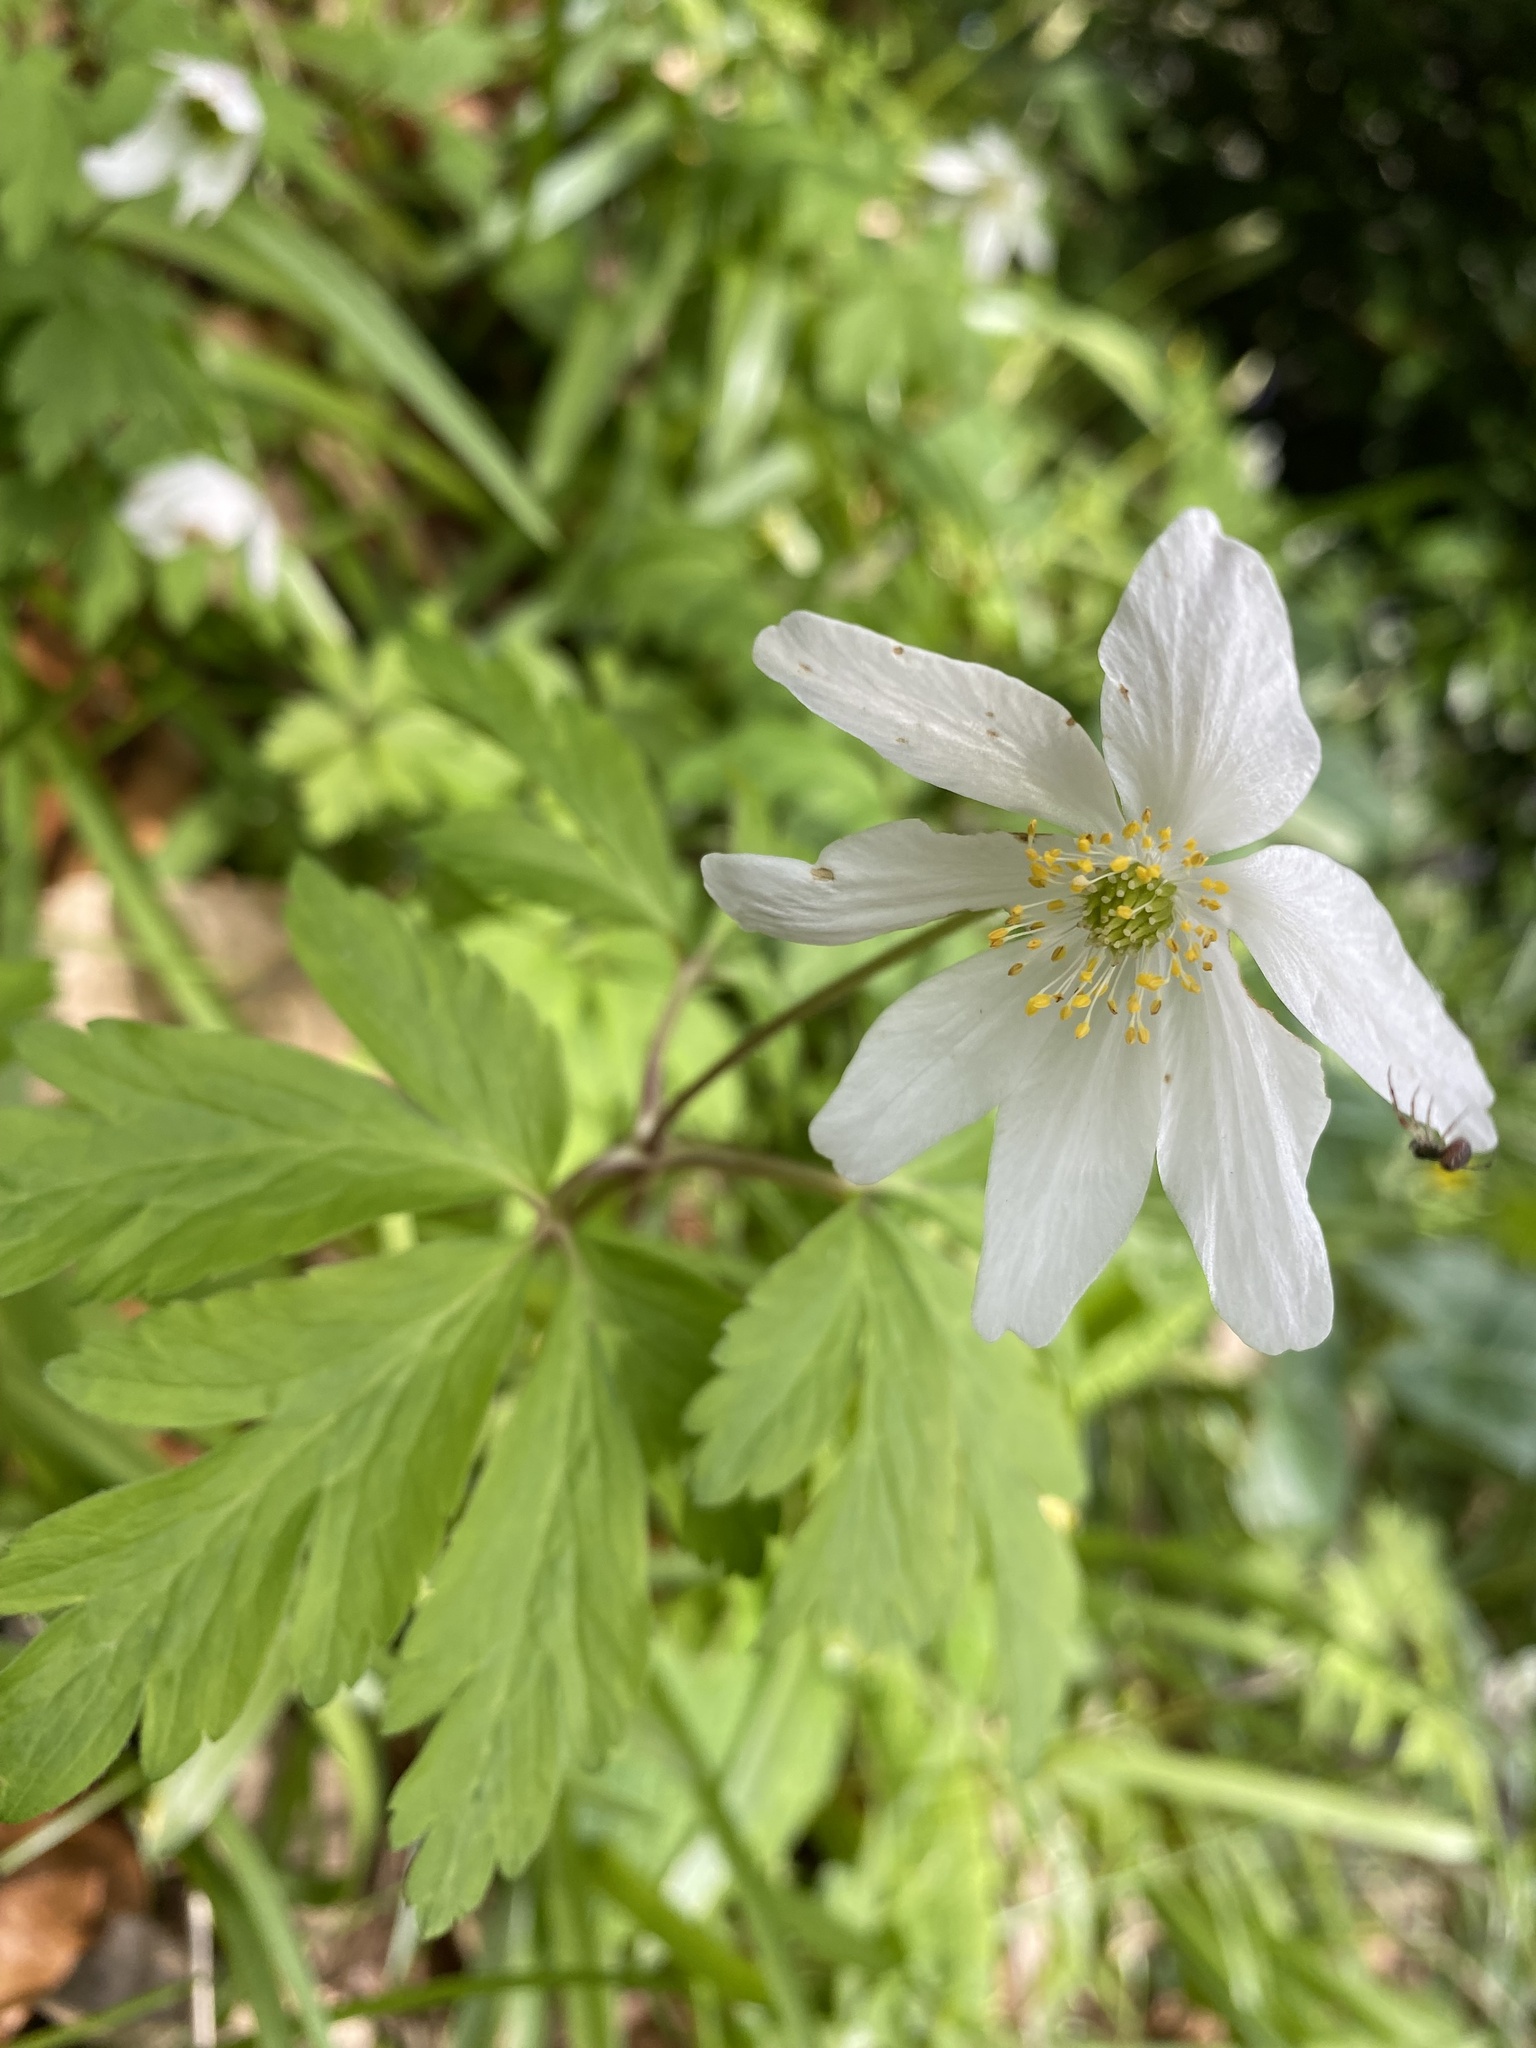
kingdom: Plantae
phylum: Tracheophyta
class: Magnoliopsida
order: Ranunculales
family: Ranunculaceae
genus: Anemone
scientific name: Anemone nemorosa
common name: Wood anemone
